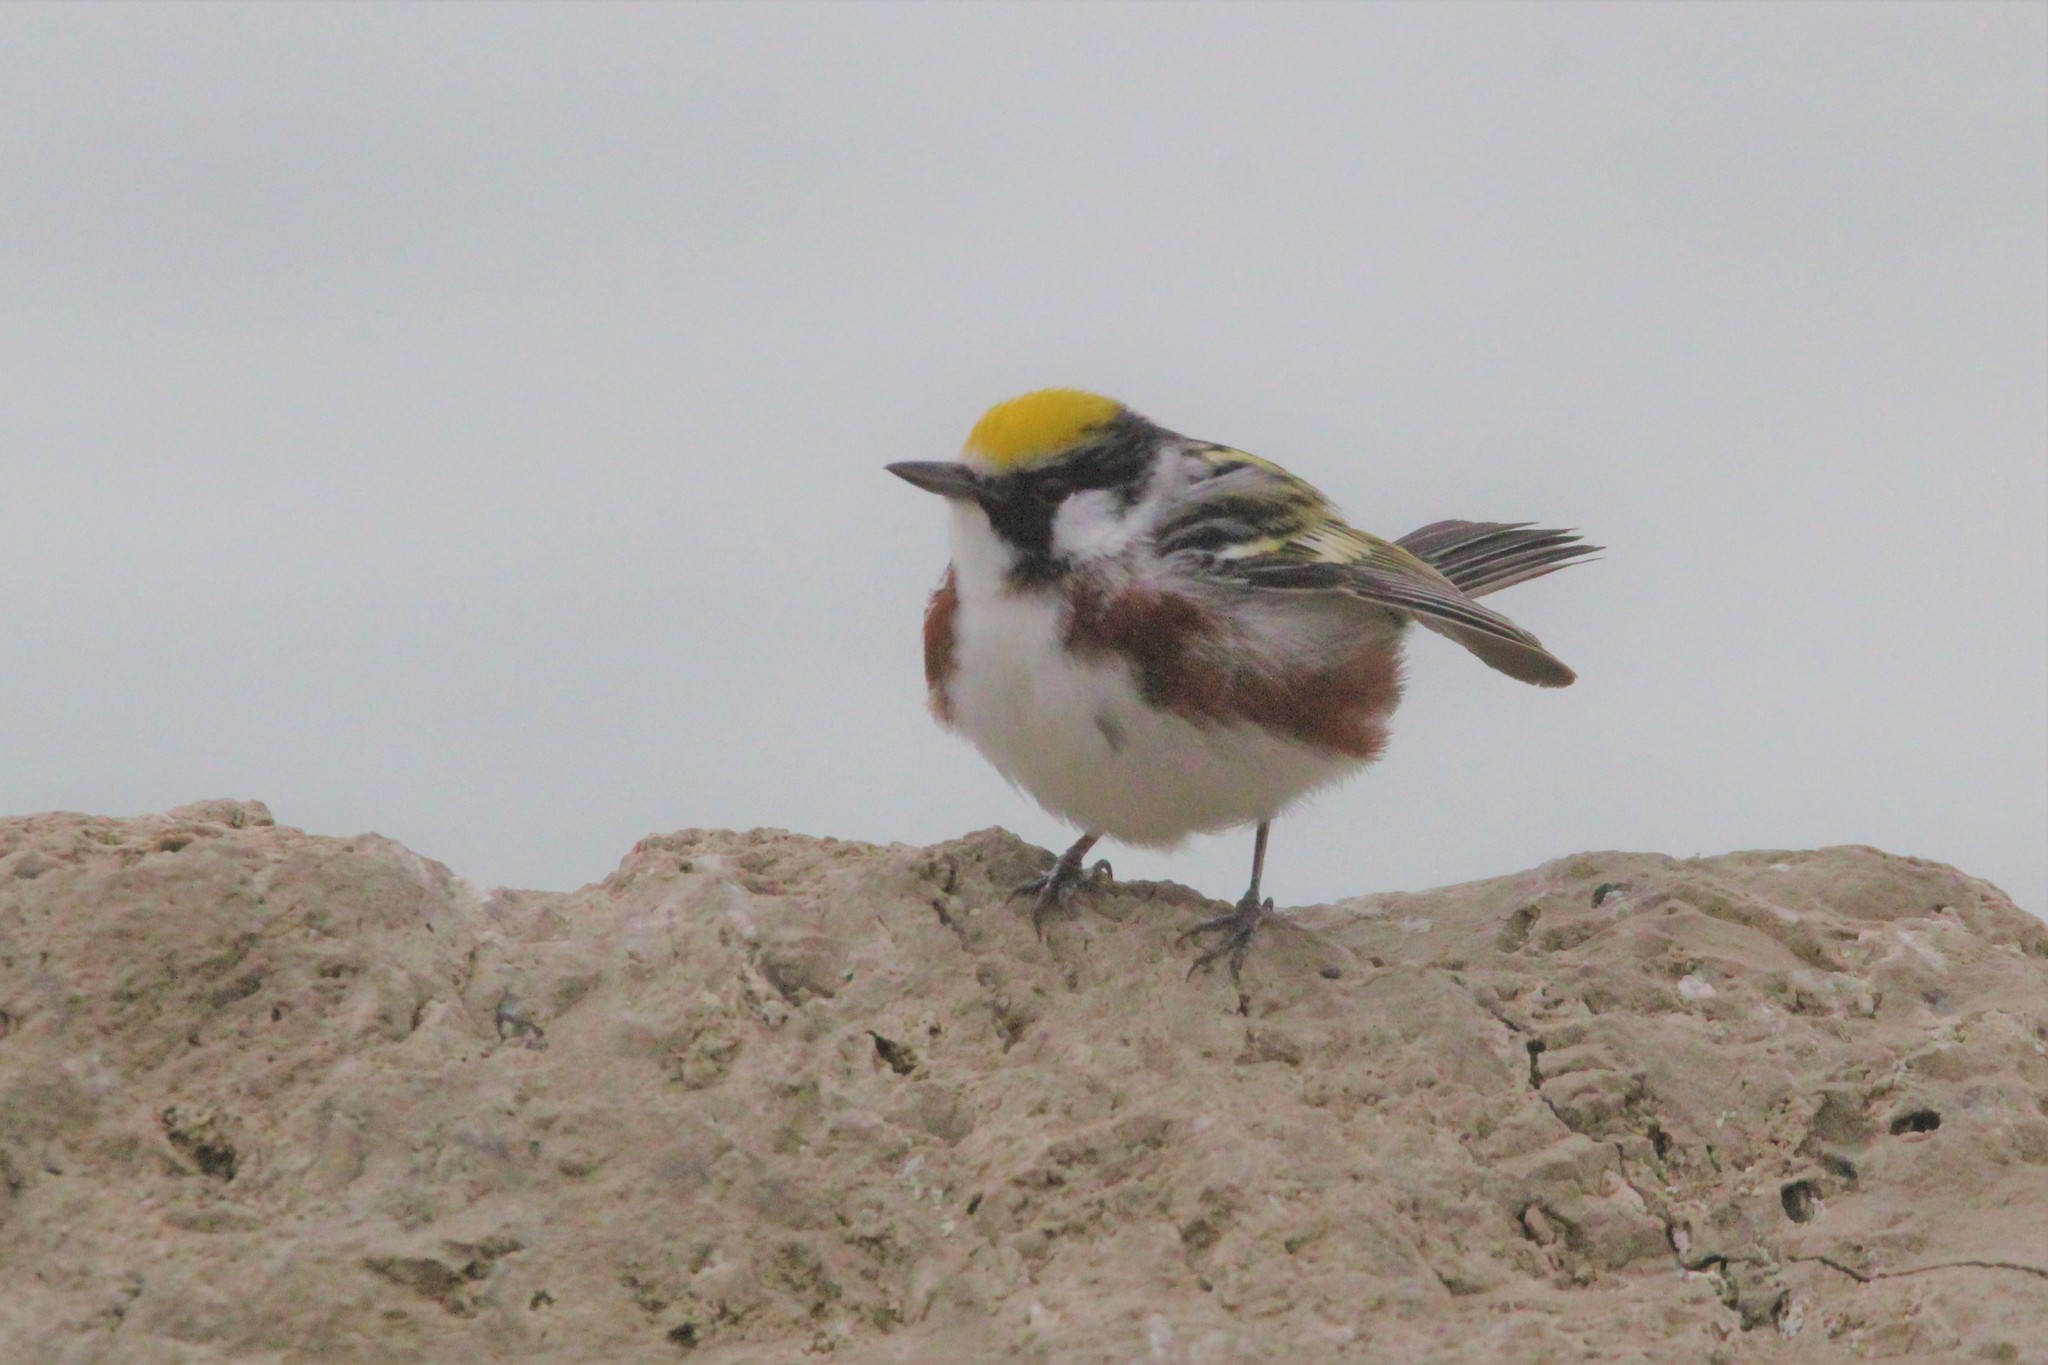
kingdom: Animalia
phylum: Chordata
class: Aves
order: Passeriformes
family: Parulidae
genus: Setophaga
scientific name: Setophaga pensylvanica
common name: Chestnut-sided warbler
